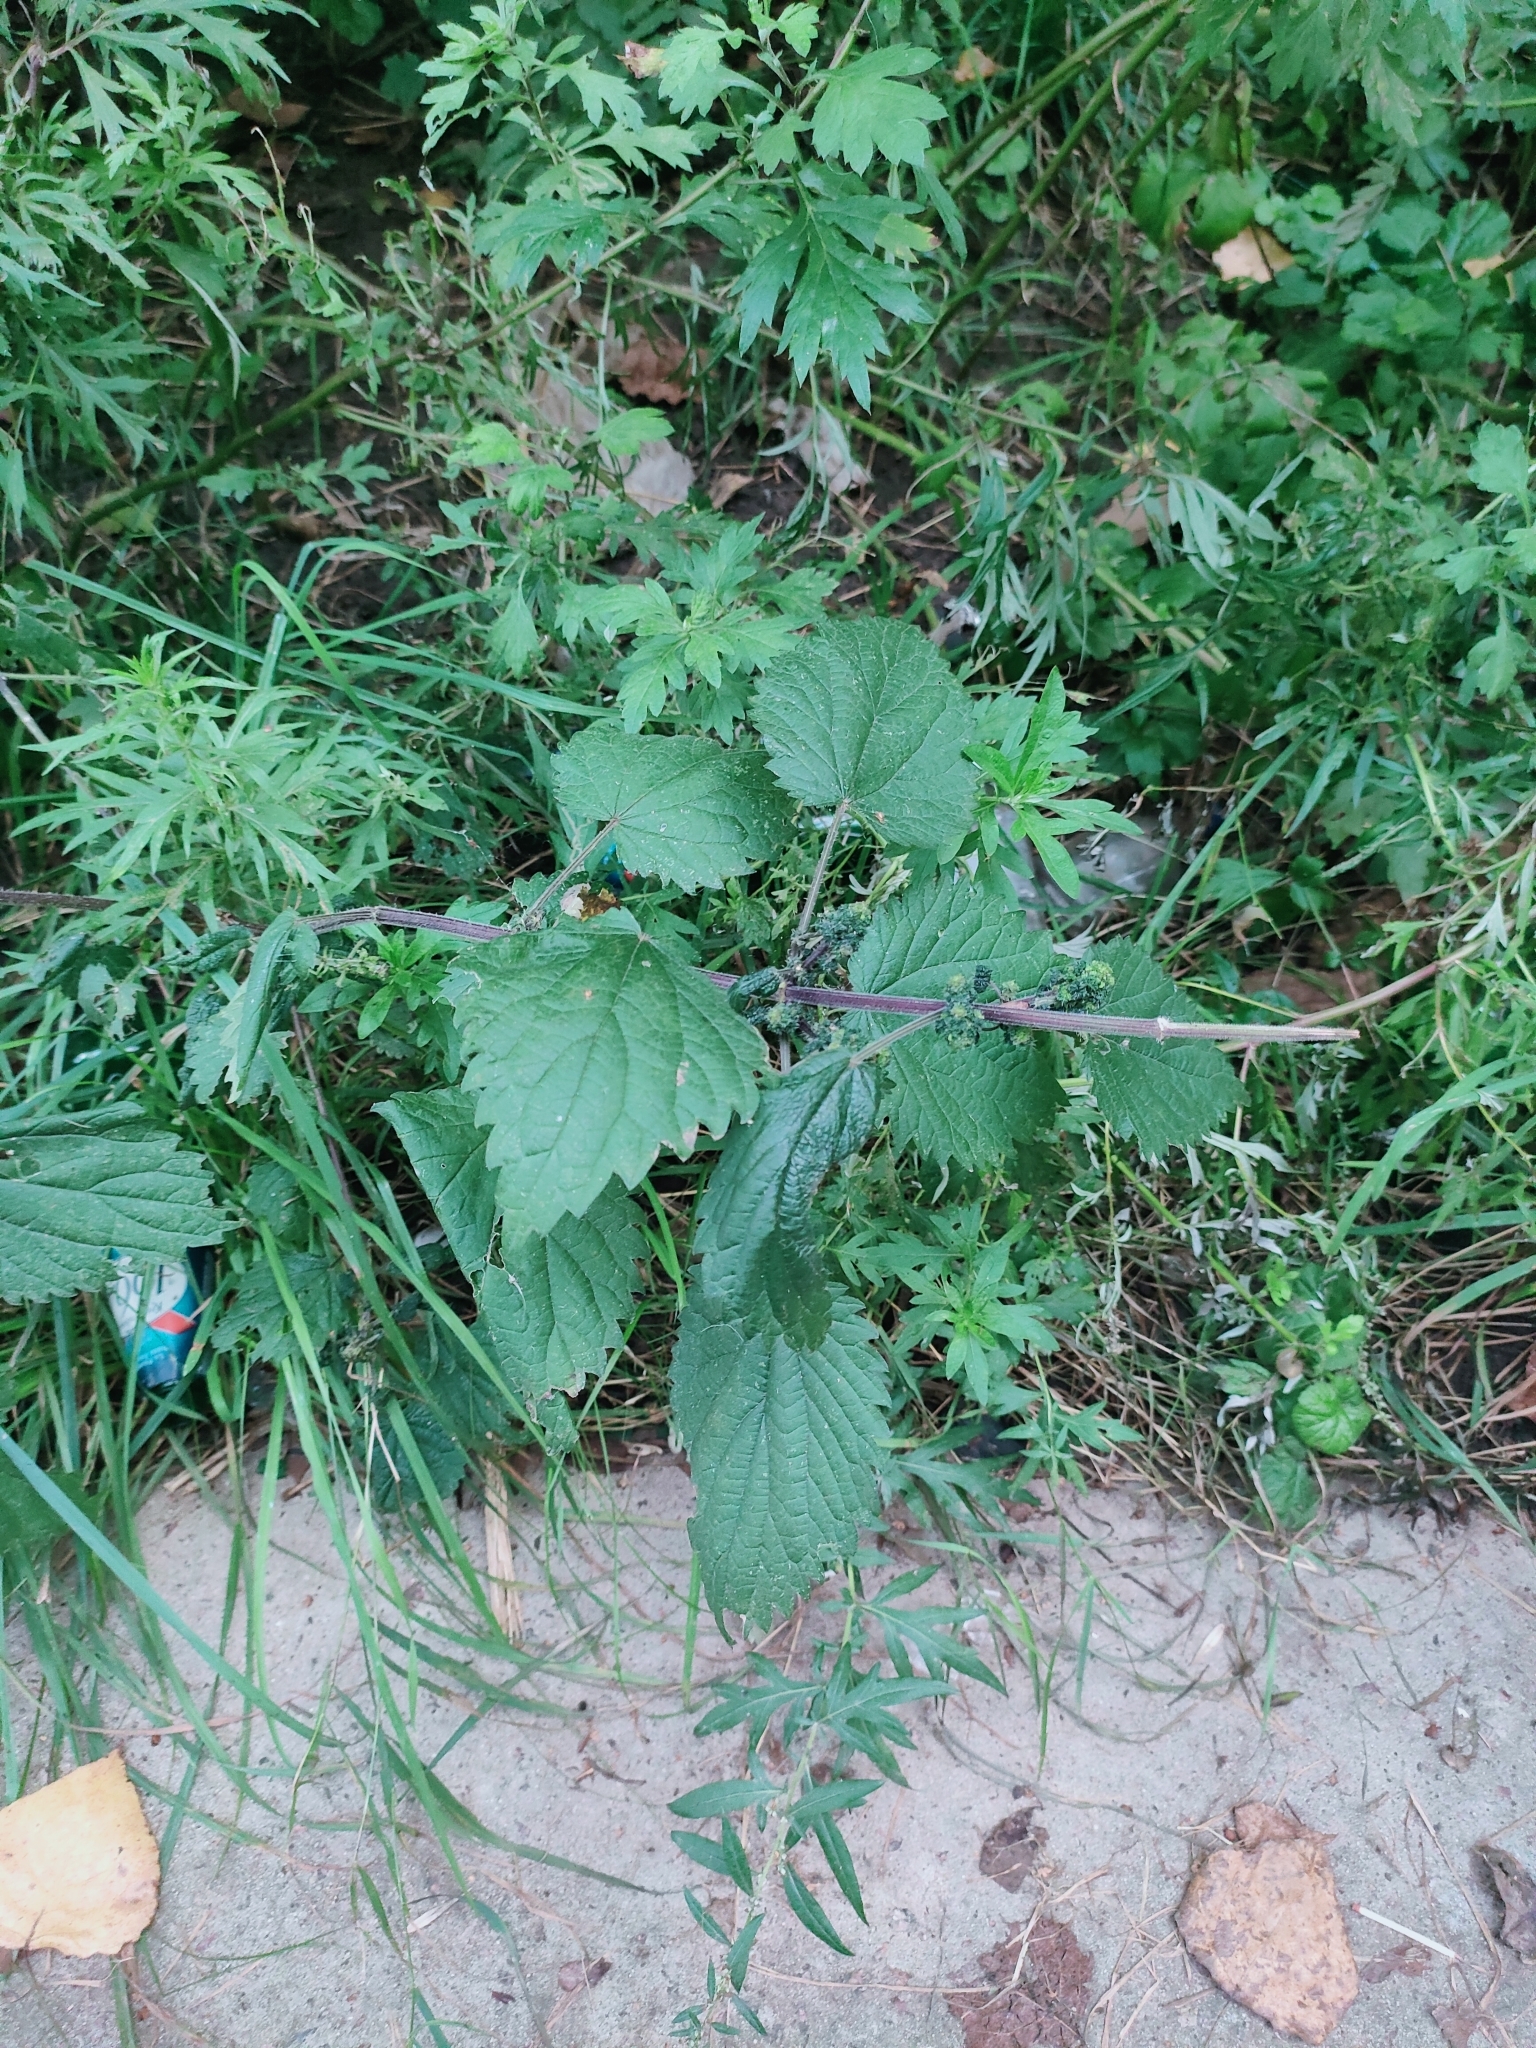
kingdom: Plantae
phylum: Tracheophyta
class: Magnoliopsida
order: Rosales
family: Urticaceae
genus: Urtica
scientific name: Urtica dioica
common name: Common nettle
